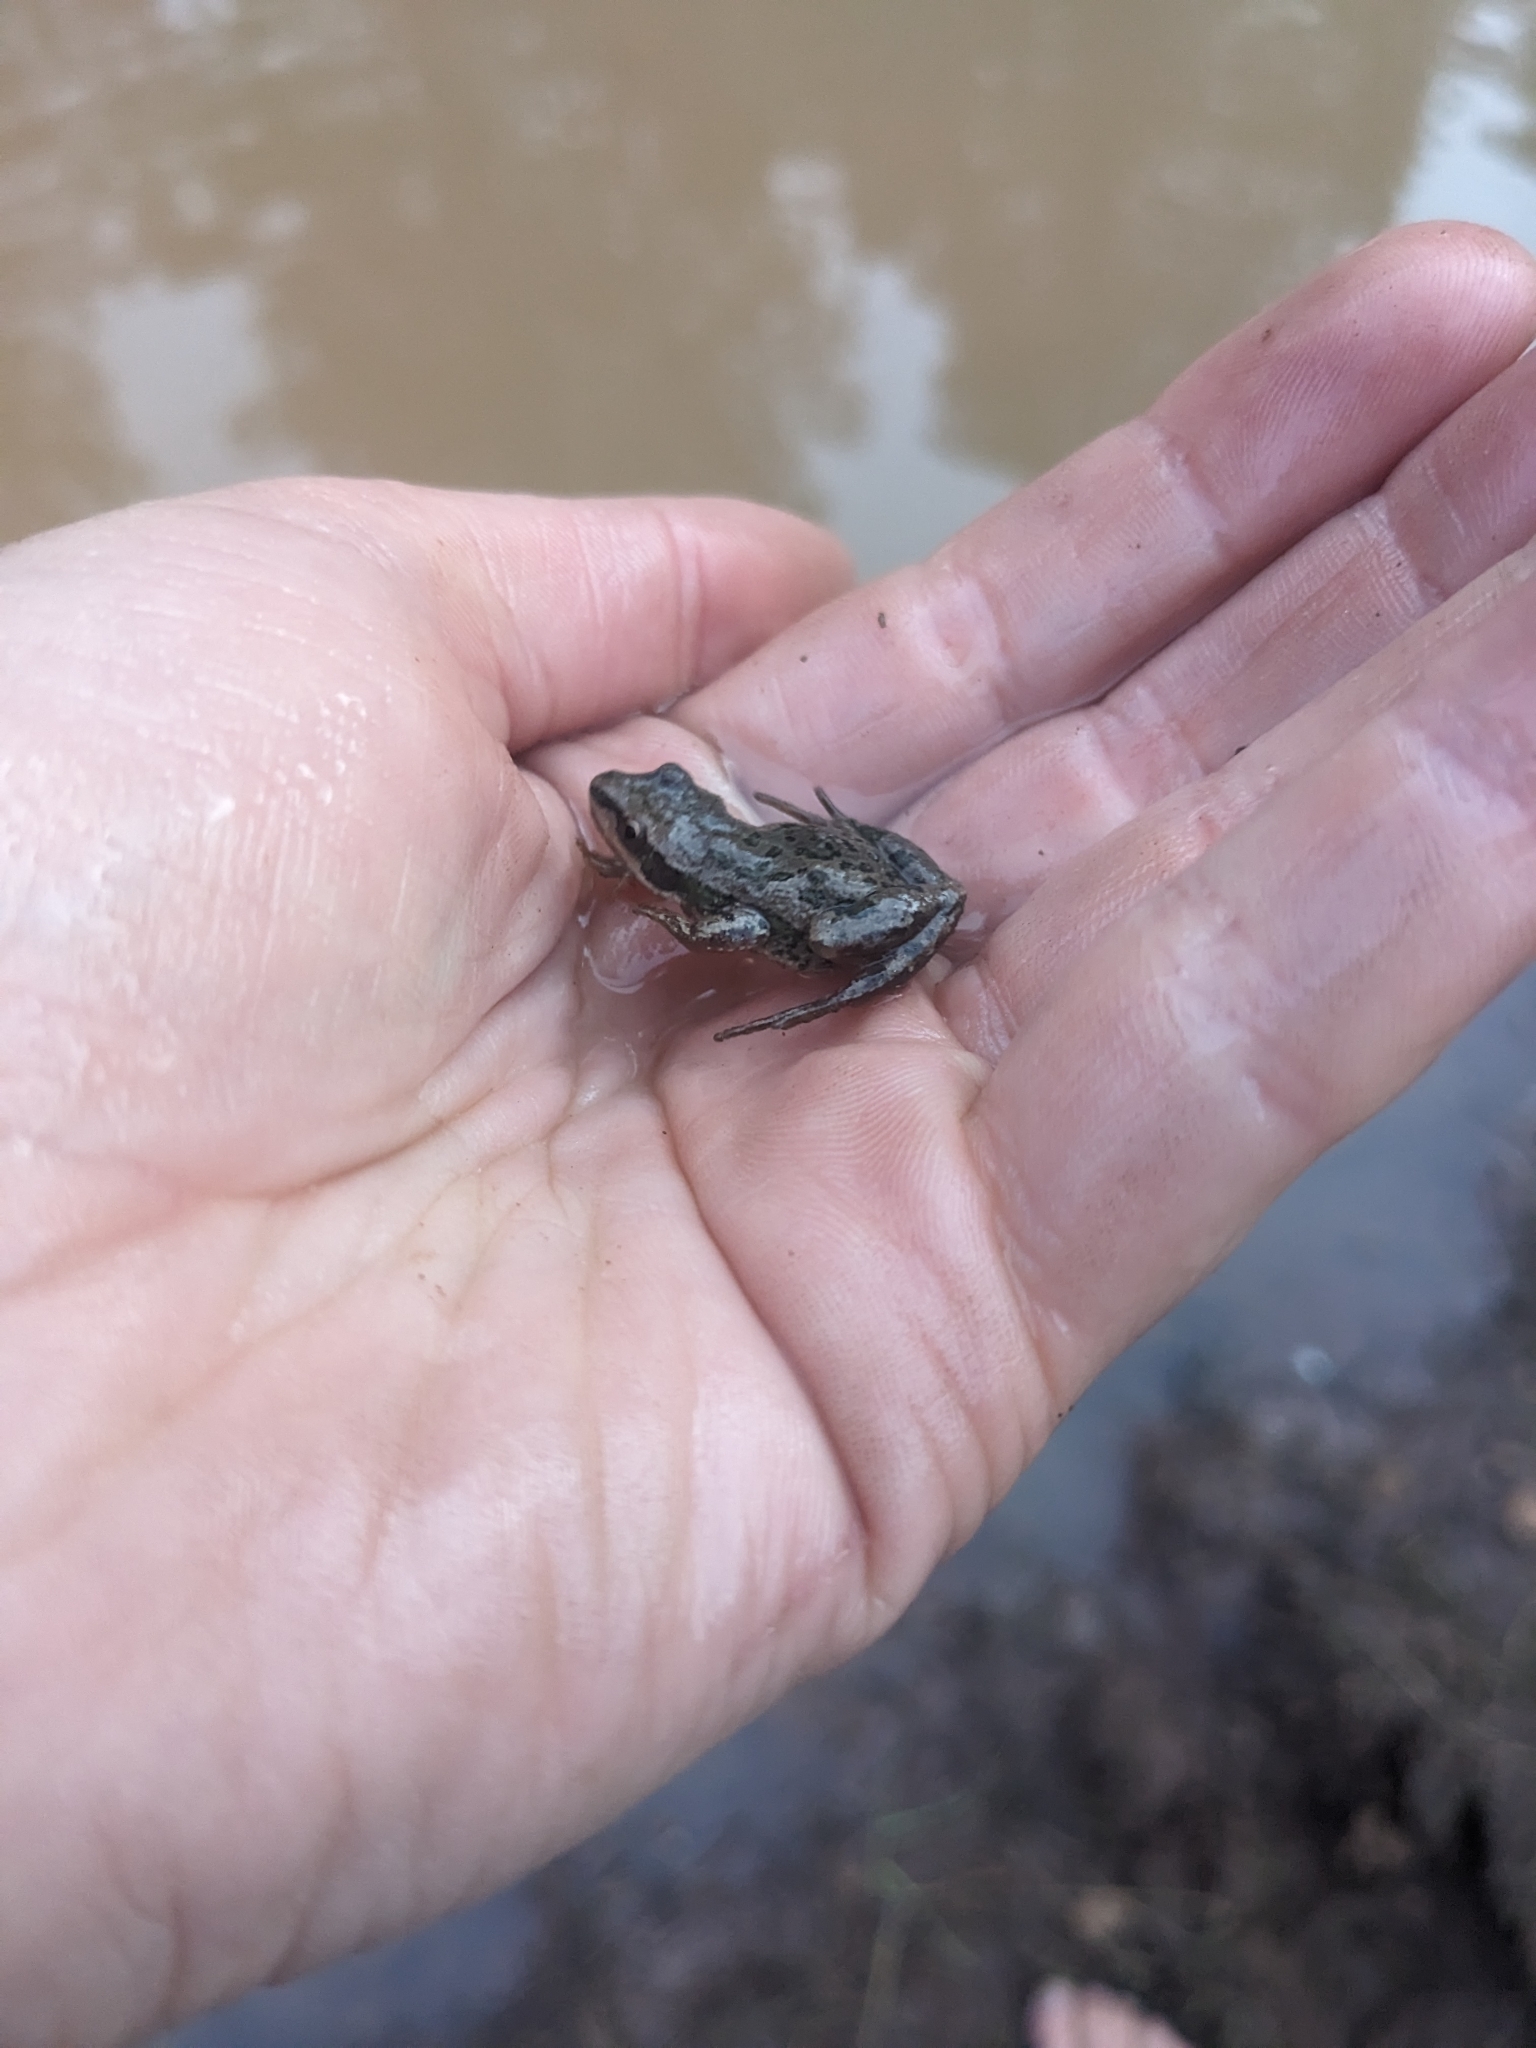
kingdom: Animalia
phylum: Chordata
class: Amphibia
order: Anura
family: Hylidae
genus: Pseudacris
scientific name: Pseudacris maculata
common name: Boreal chorus frog
